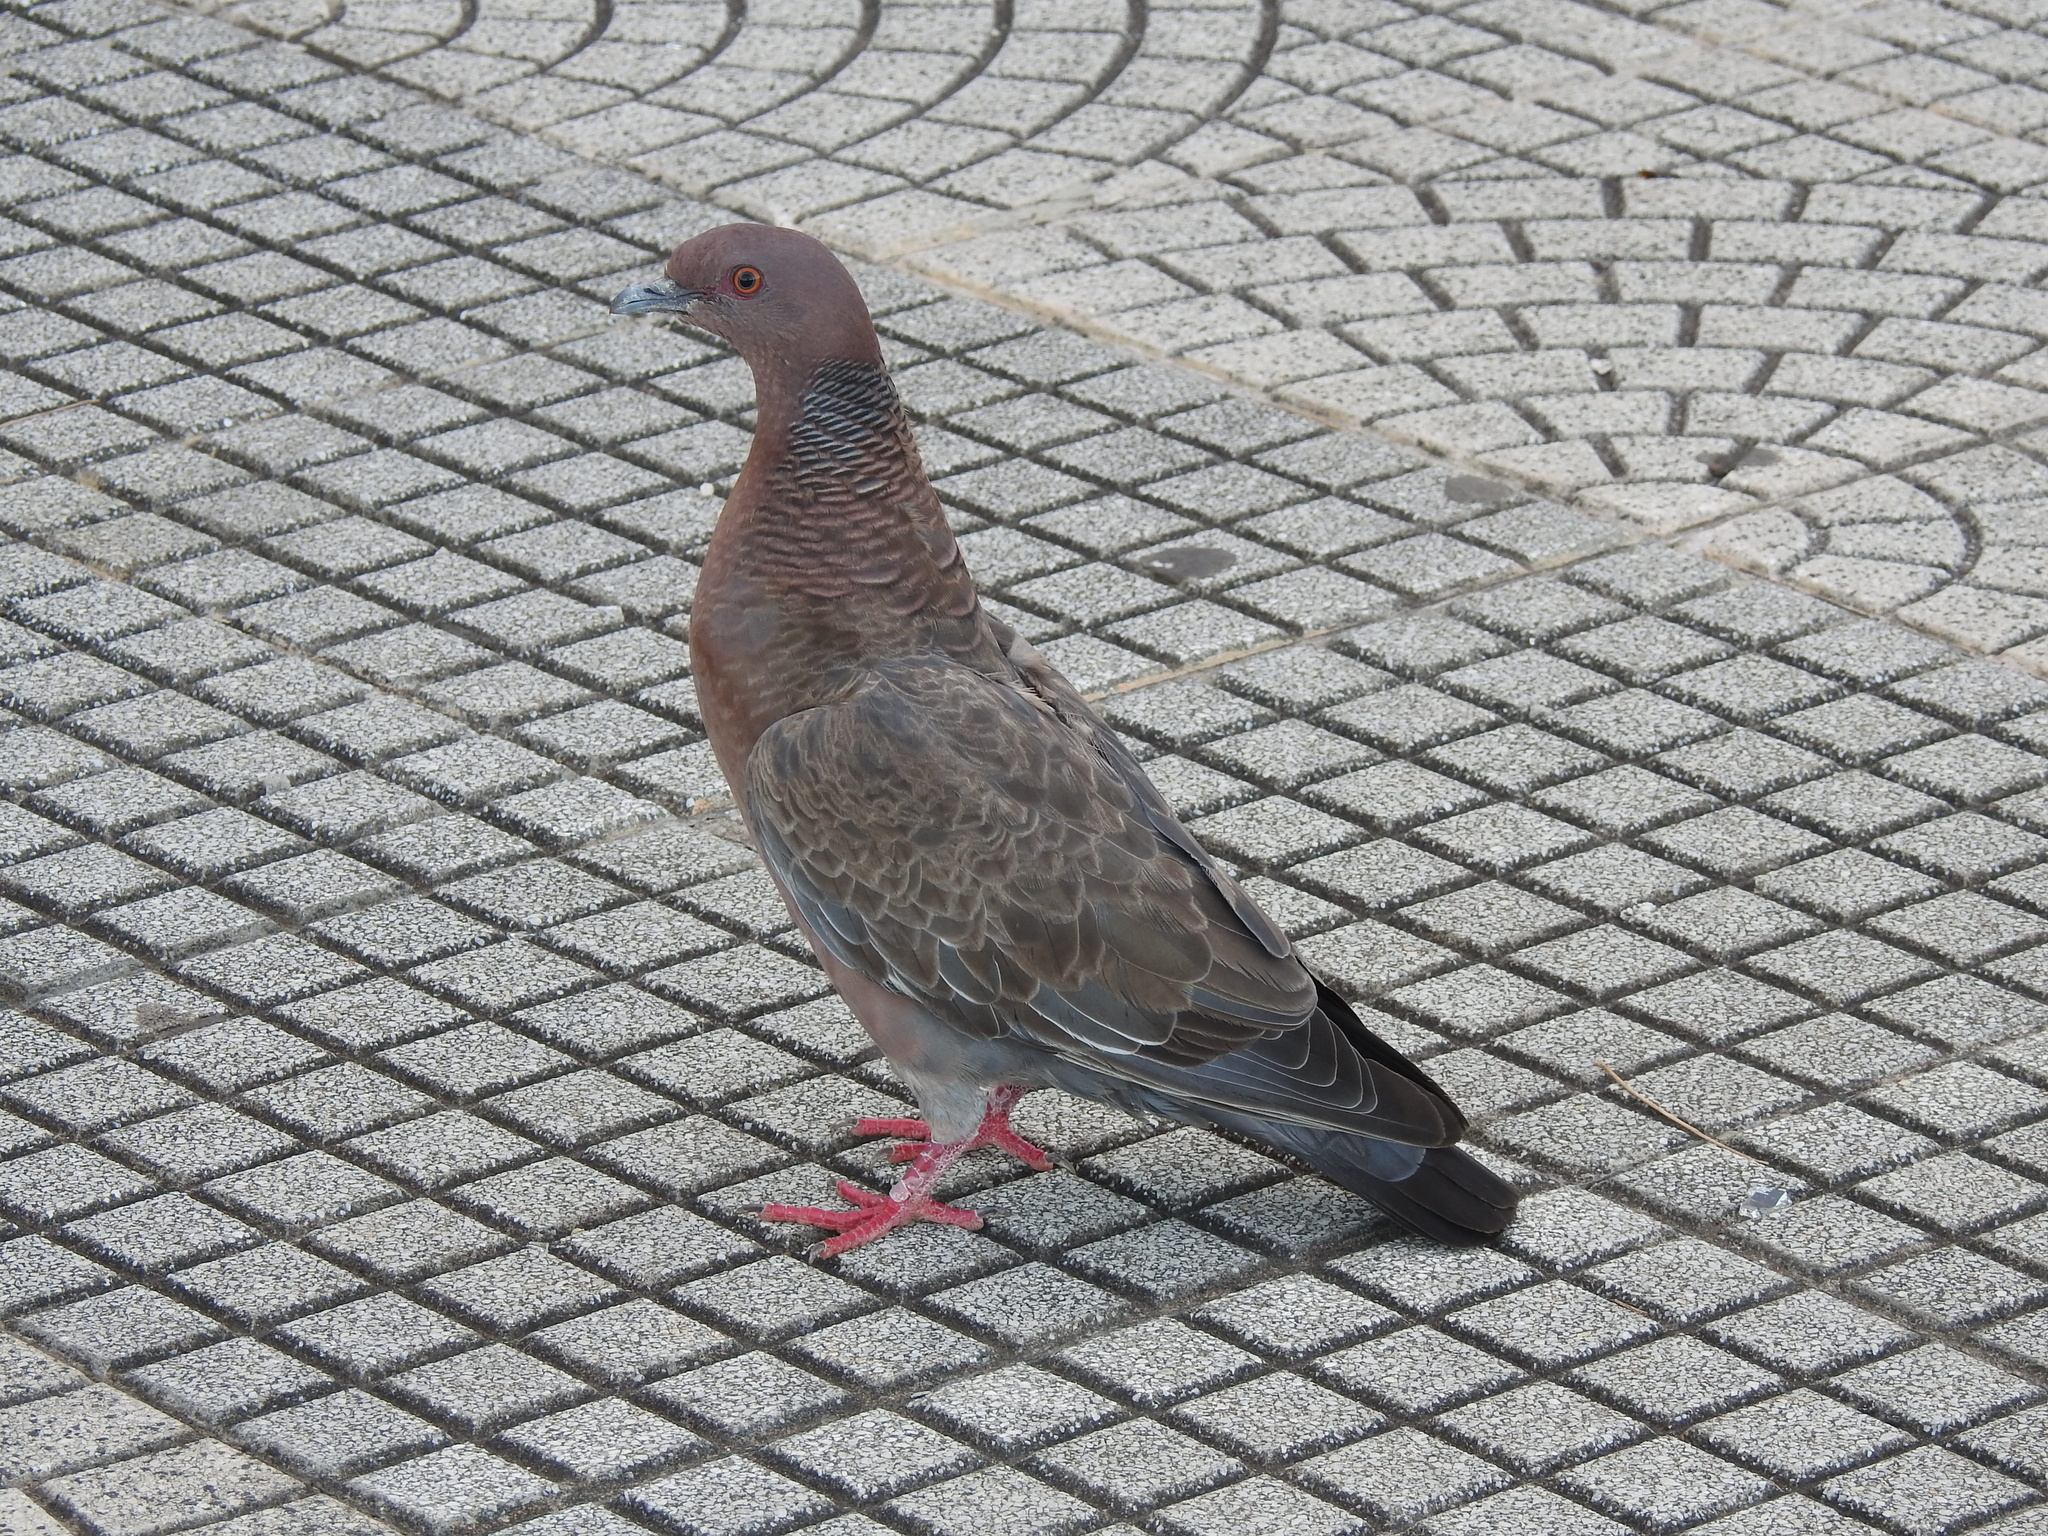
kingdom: Animalia
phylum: Chordata
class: Aves
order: Columbiformes
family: Columbidae
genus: Patagioenas
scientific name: Patagioenas picazuro
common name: Picazuro pigeon
